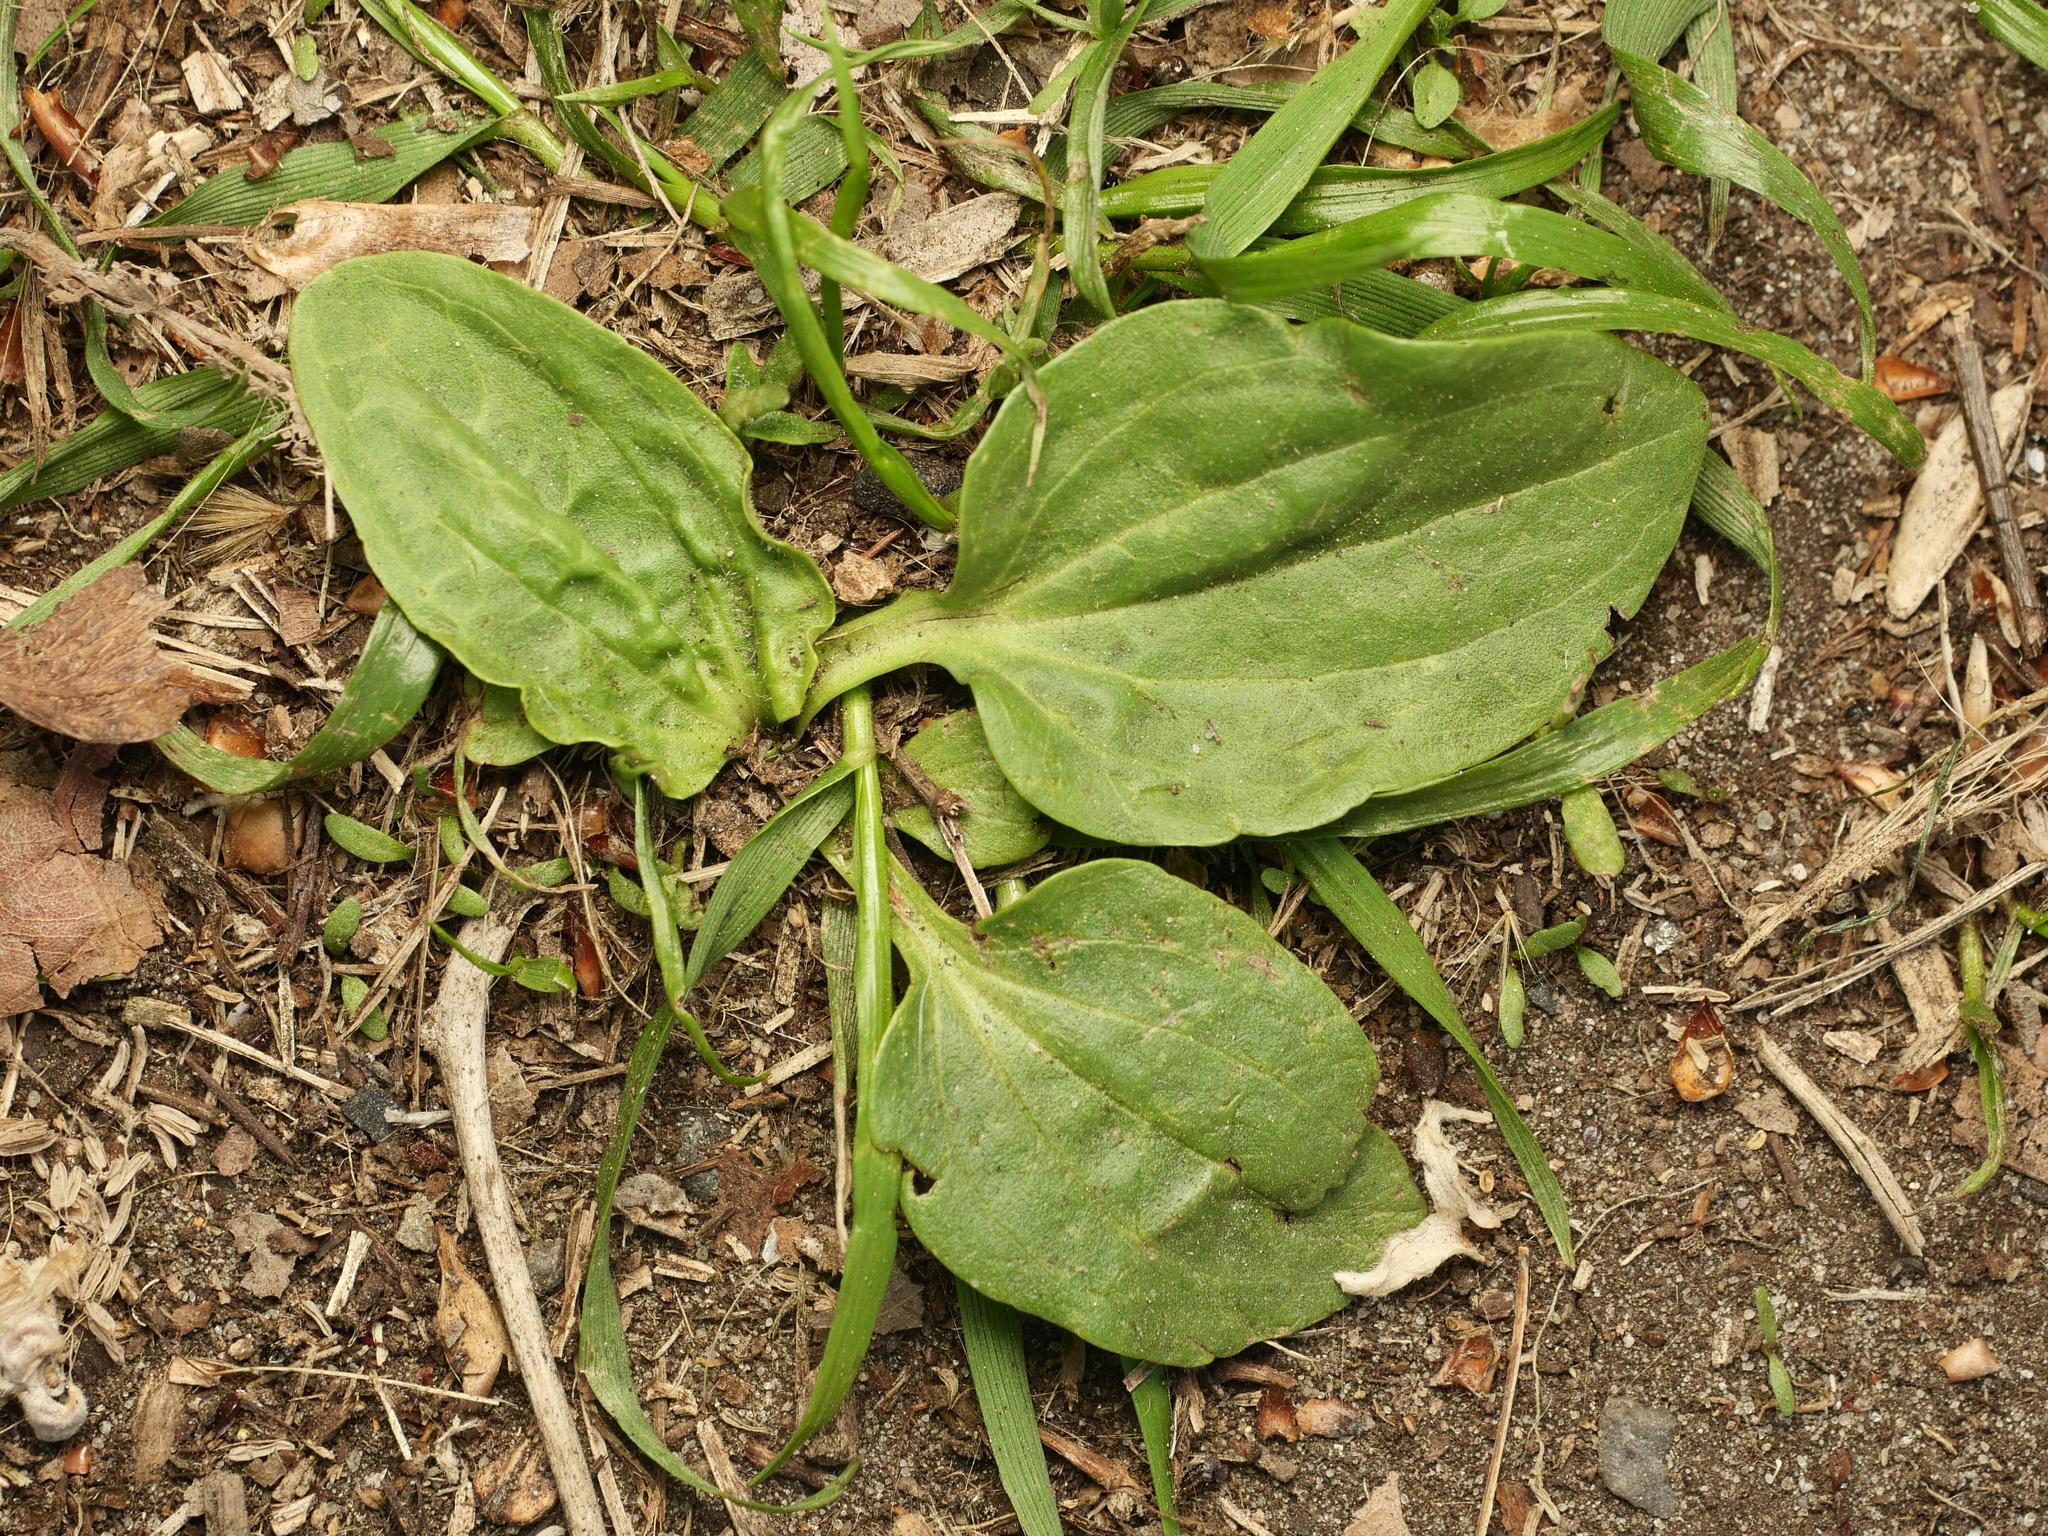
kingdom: Plantae
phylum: Tracheophyta
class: Magnoliopsida
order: Lamiales
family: Plantaginaceae
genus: Plantago
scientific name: Plantago major
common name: Common plantain
